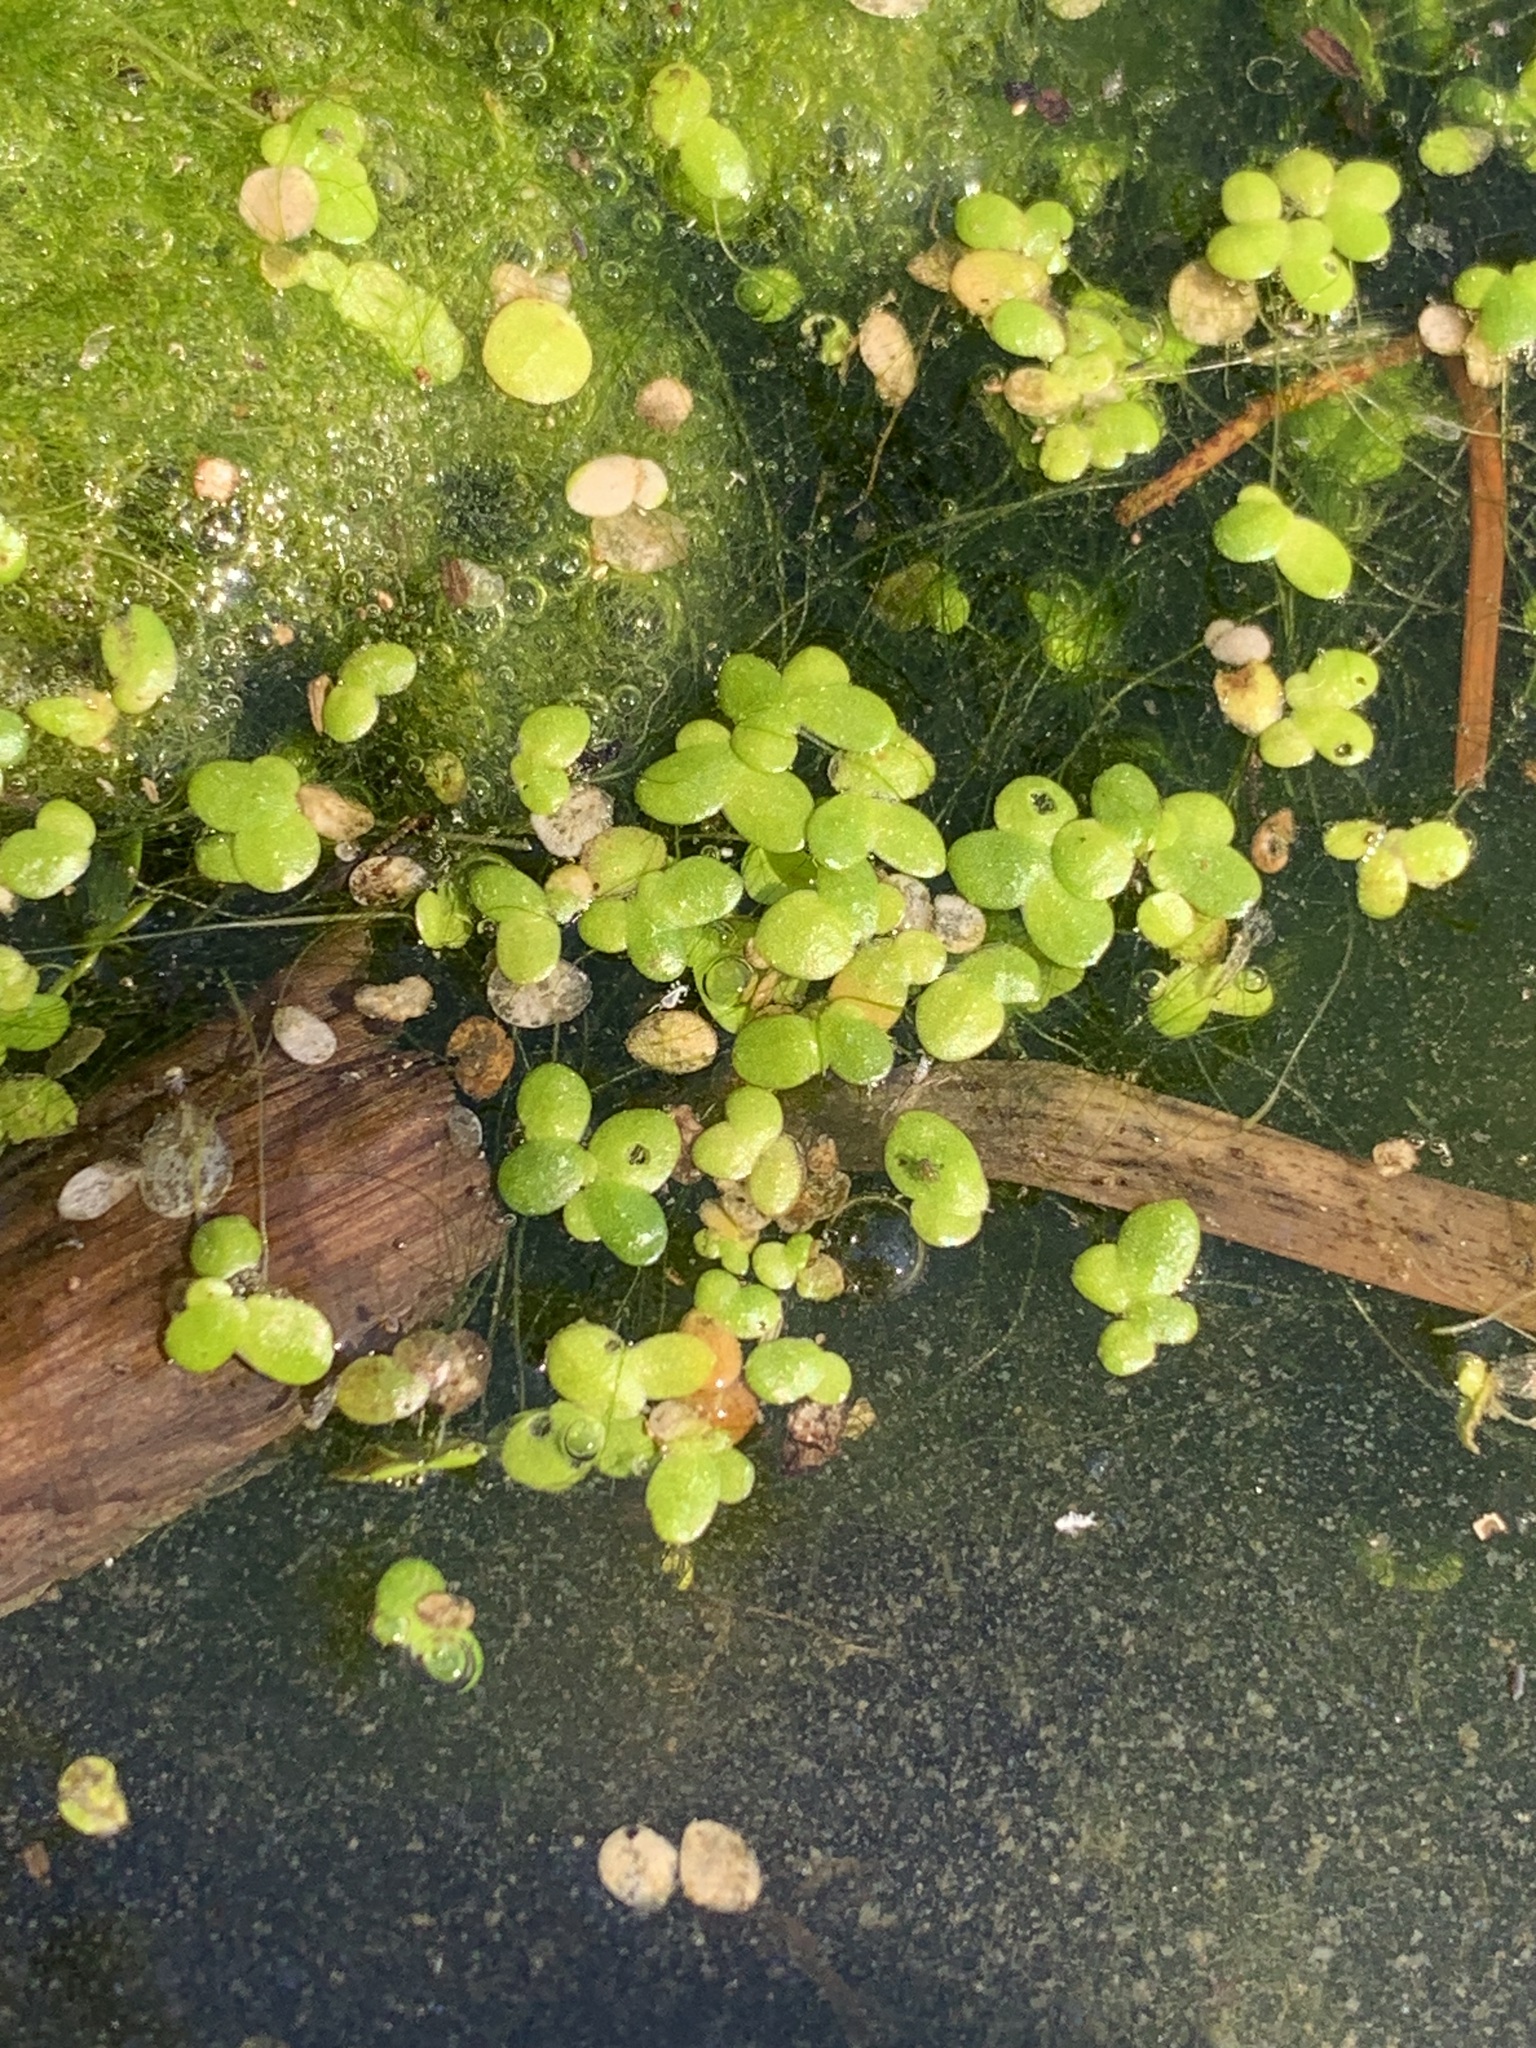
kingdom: Plantae
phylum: Tracheophyta
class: Liliopsida
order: Alismatales
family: Araceae
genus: Lemna
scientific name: Lemna turionifera
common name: Perennial duckweed
